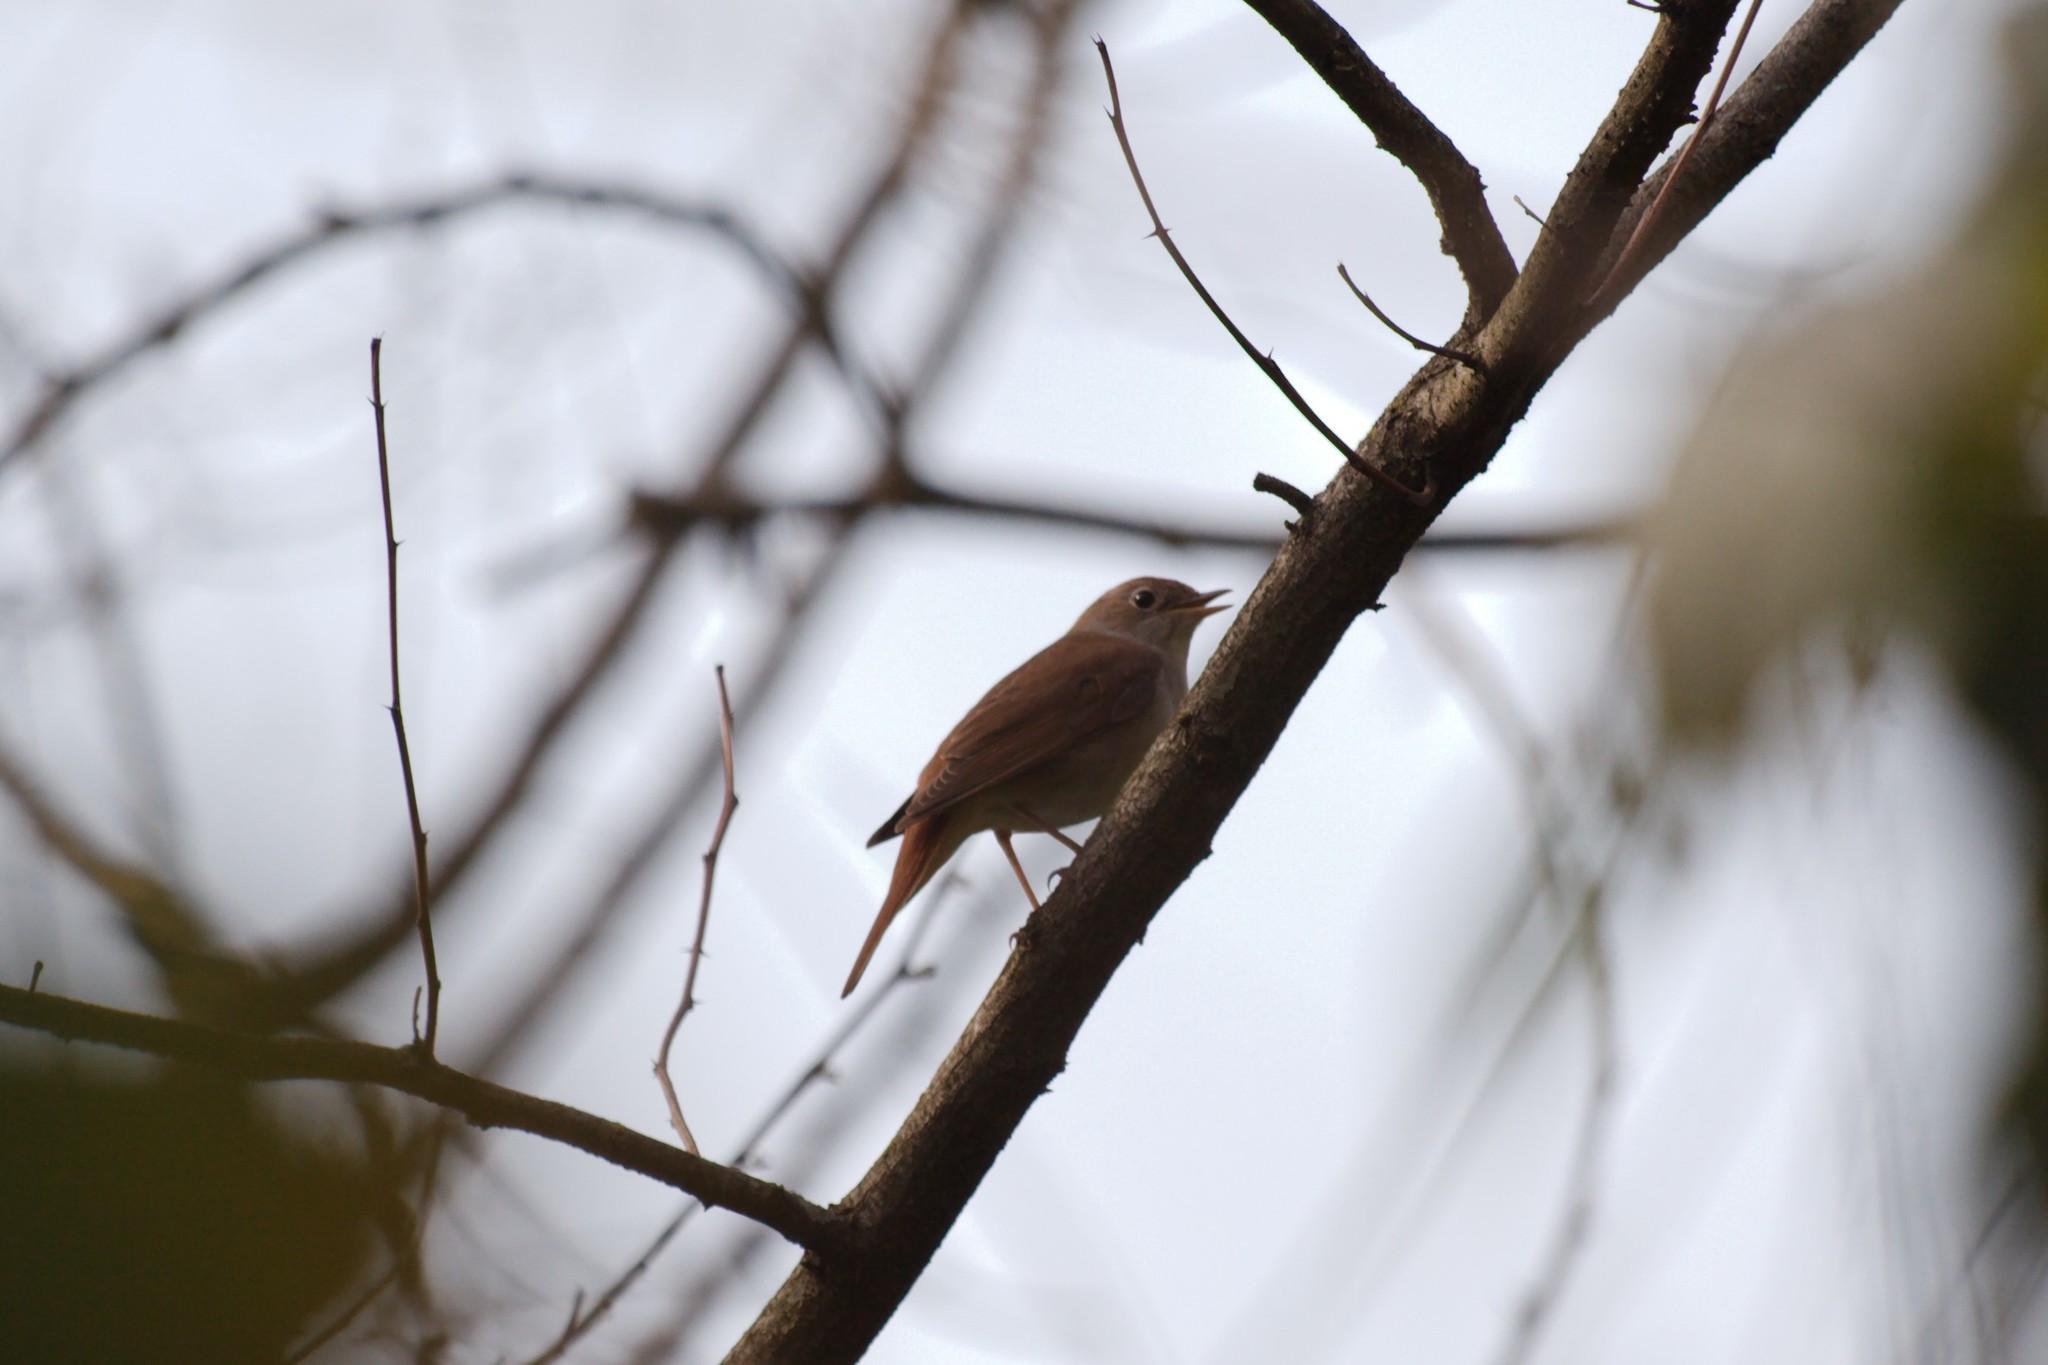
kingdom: Animalia
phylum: Chordata
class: Aves
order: Passeriformes
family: Muscicapidae
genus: Luscinia
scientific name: Luscinia megarhynchos
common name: Common nightingale
